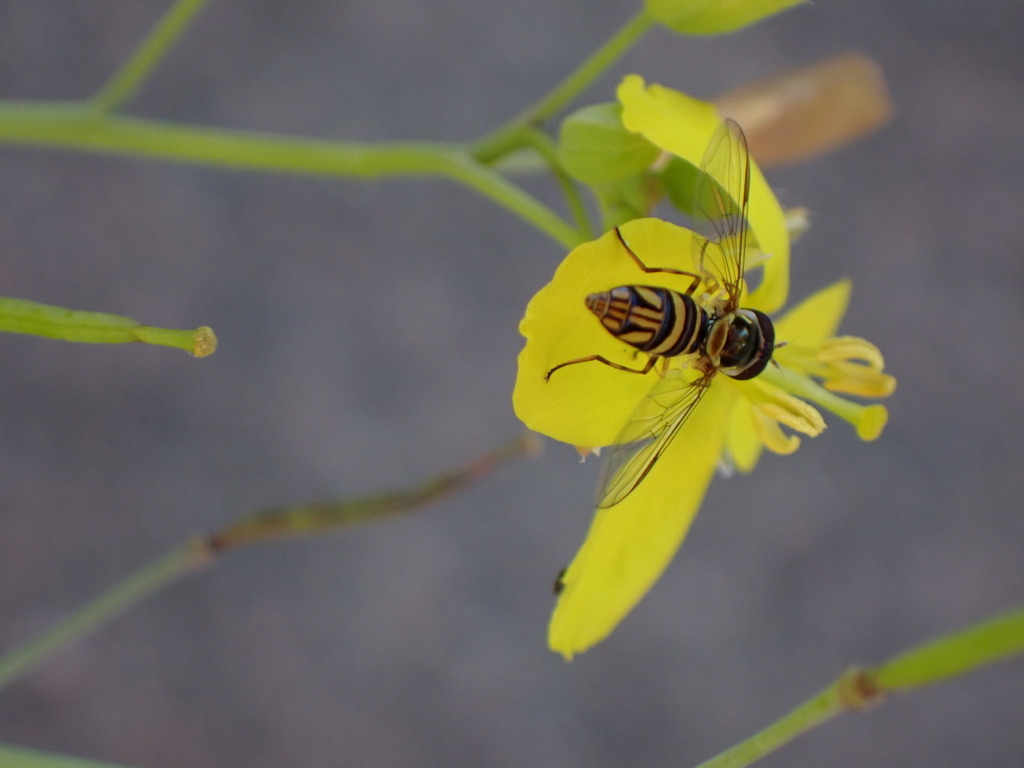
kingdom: Animalia
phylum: Arthropoda
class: Insecta
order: Diptera
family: Syrphidae
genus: Allograpta
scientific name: Allograpta obliqua
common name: Common oblique syrphid
